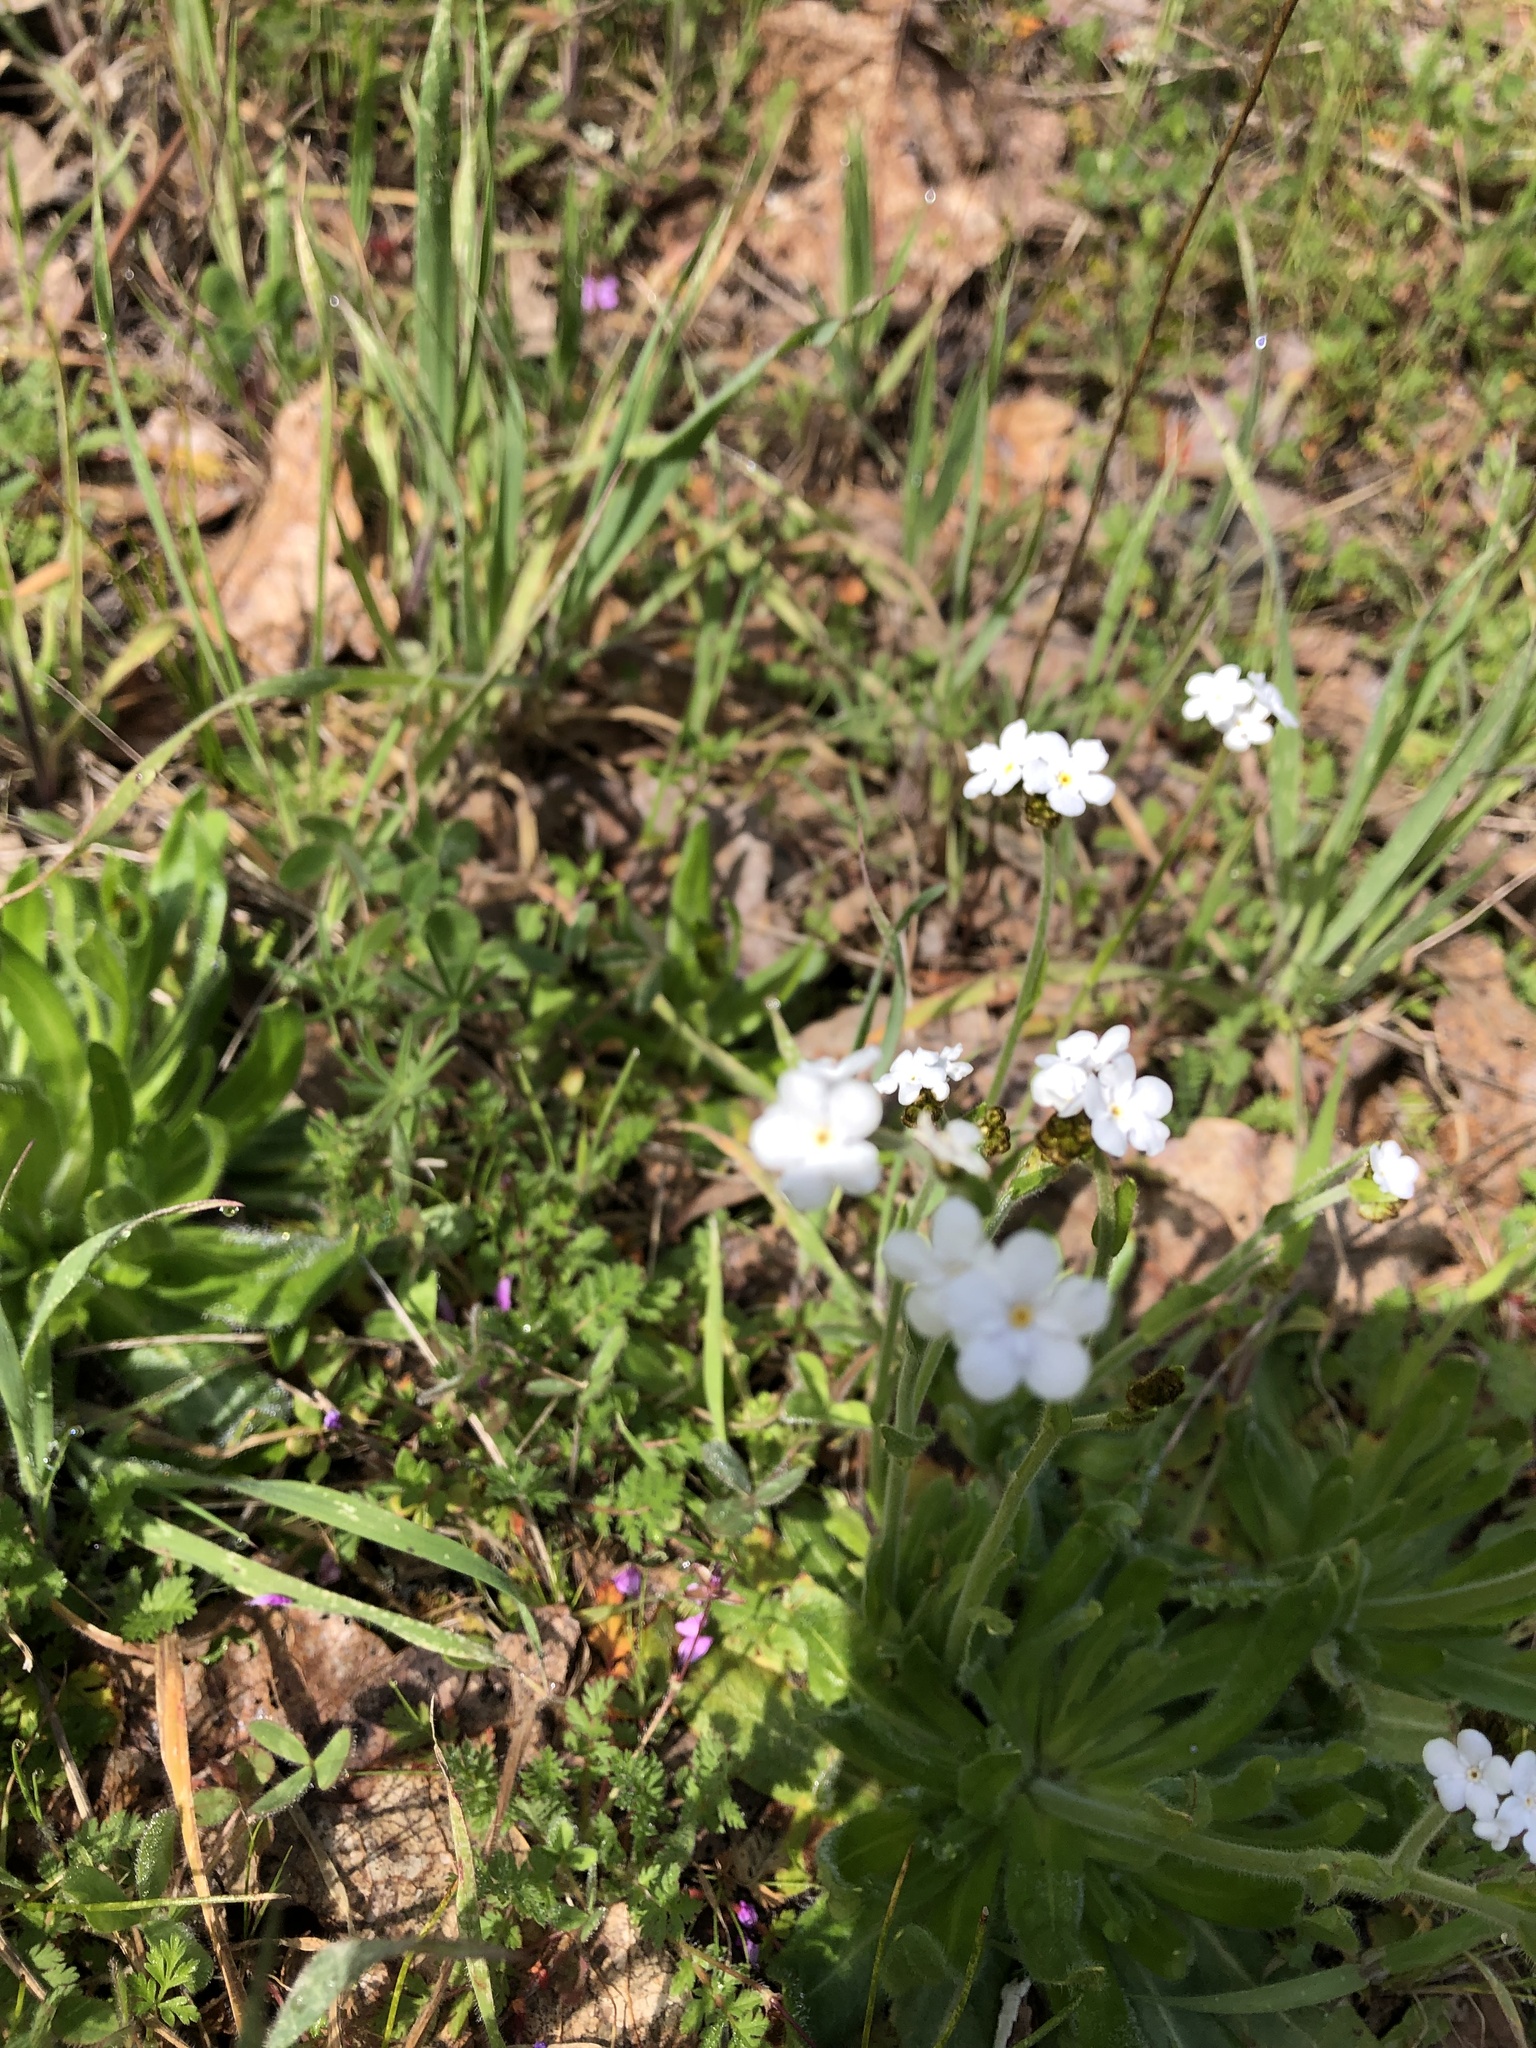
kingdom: Plantae
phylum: Tracheophyta
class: Magnoliopsida
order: Boraginales
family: Boraginaceae
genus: Plagiobothrys
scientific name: Plagiobothrys nothofulvus
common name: Popcorn-flower
